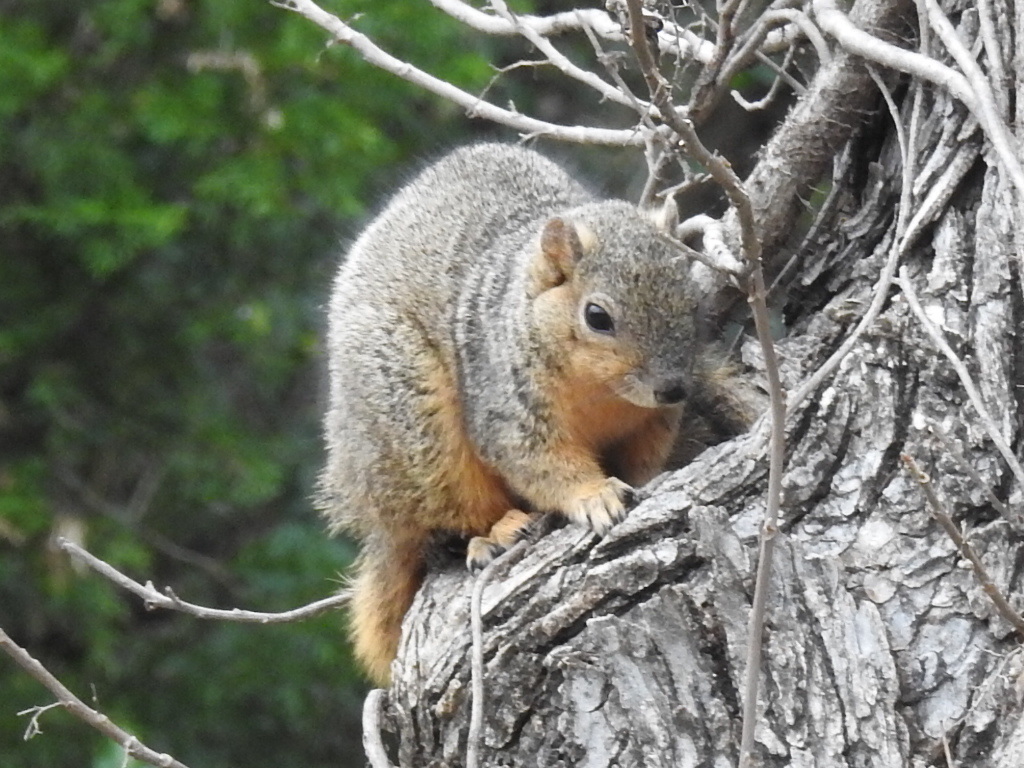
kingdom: Animalia
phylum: Chordata
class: Mammalia
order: Rodentia
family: Sciuridae
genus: Sciurus
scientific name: Sciurus niger
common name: Fox squirrel
